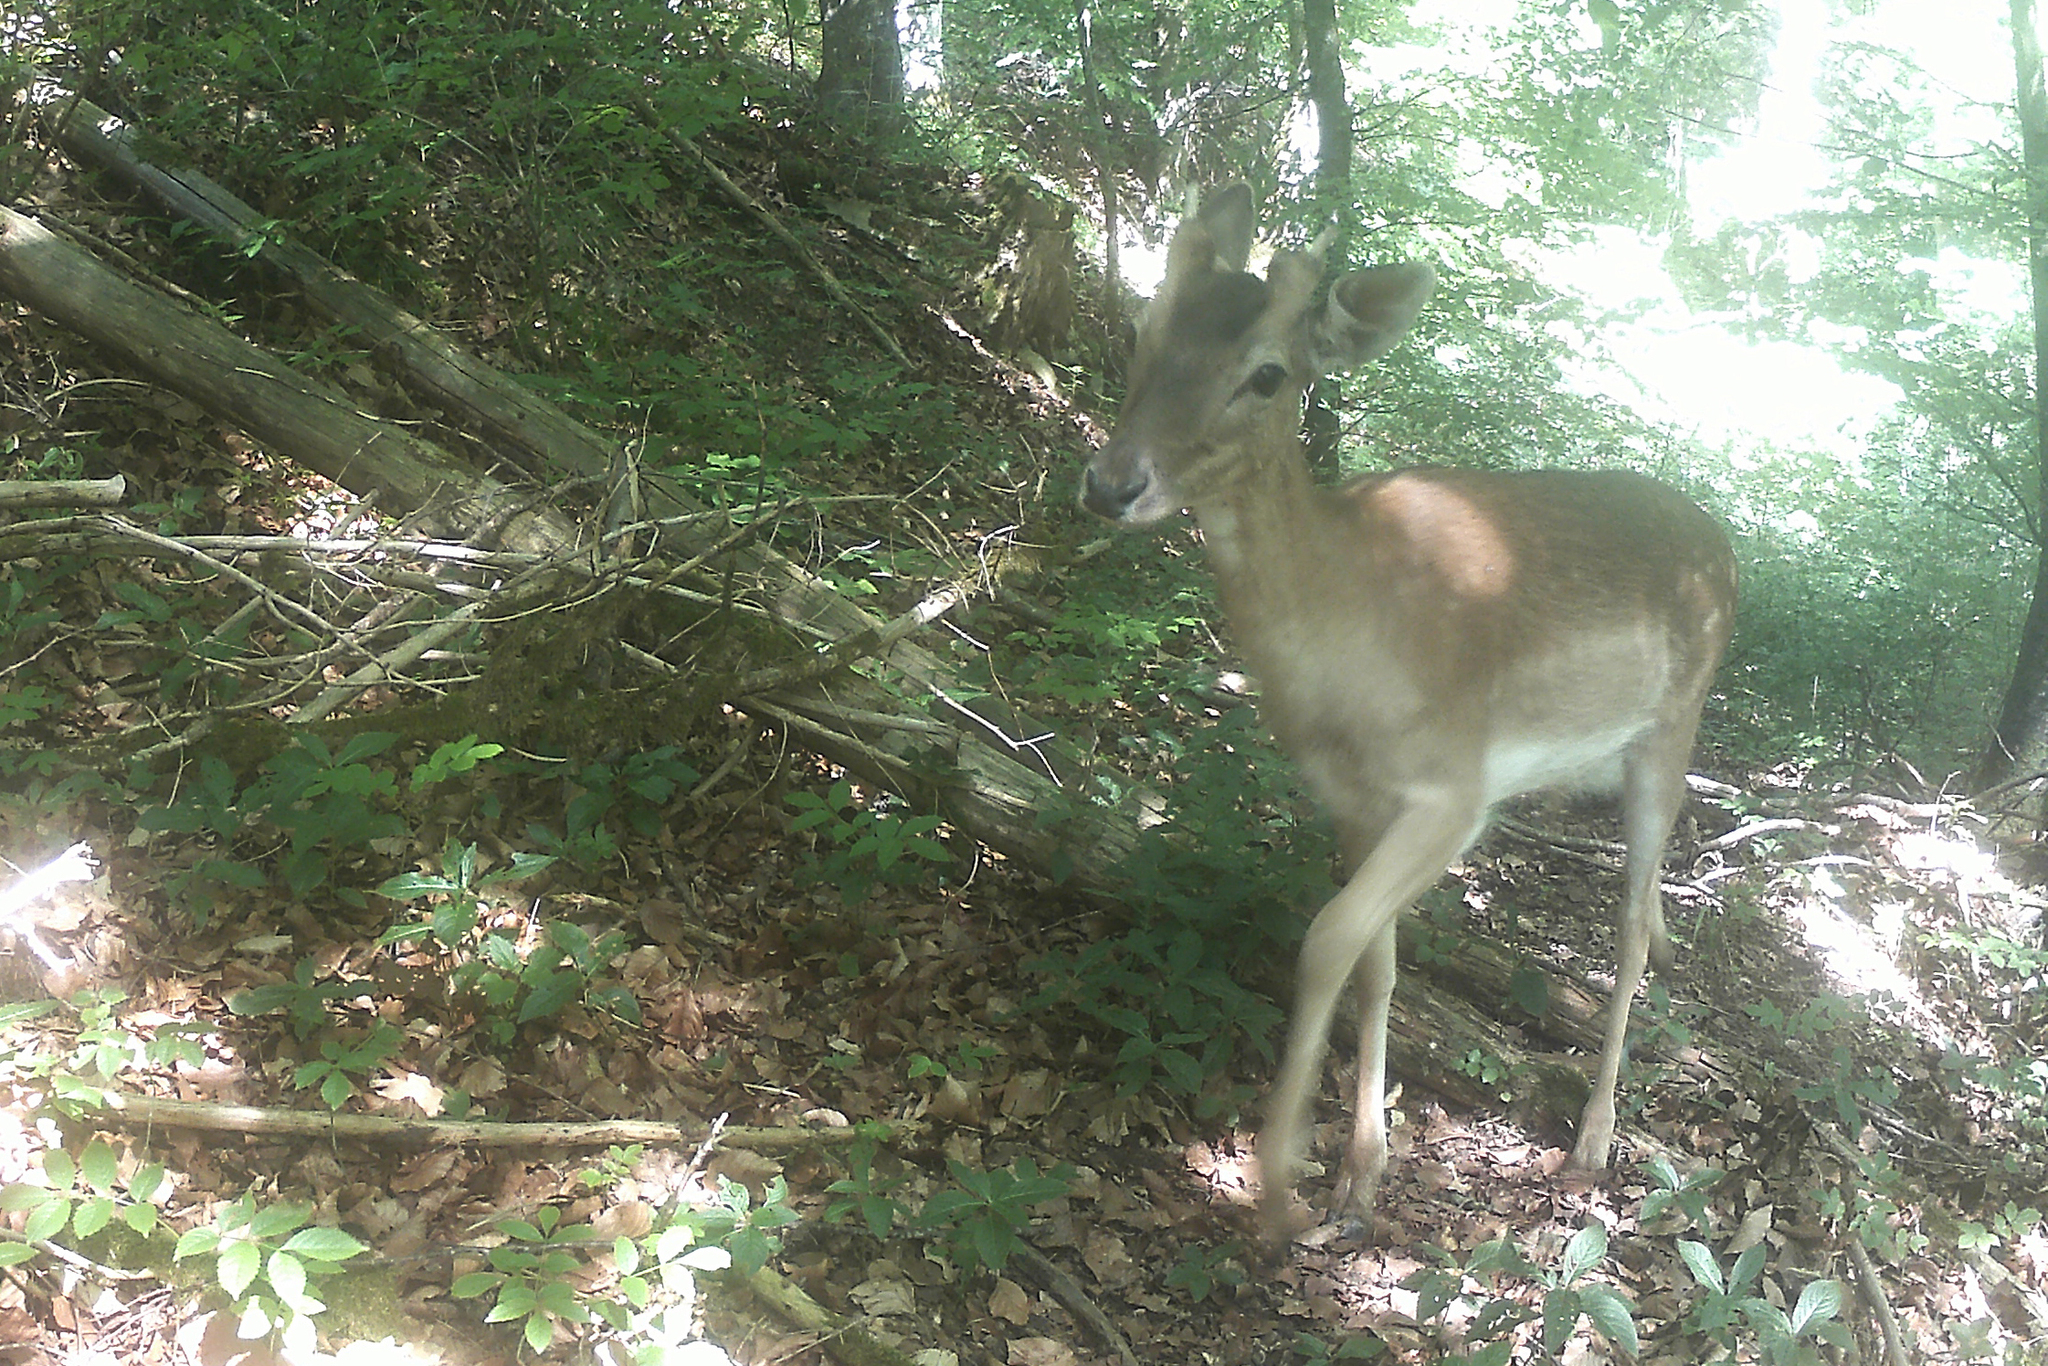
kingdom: Animalia
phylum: Chordata
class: Mammalia
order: Artiodactyla
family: Cervidae
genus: Dama
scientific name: Dama dama
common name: Fallow deer
